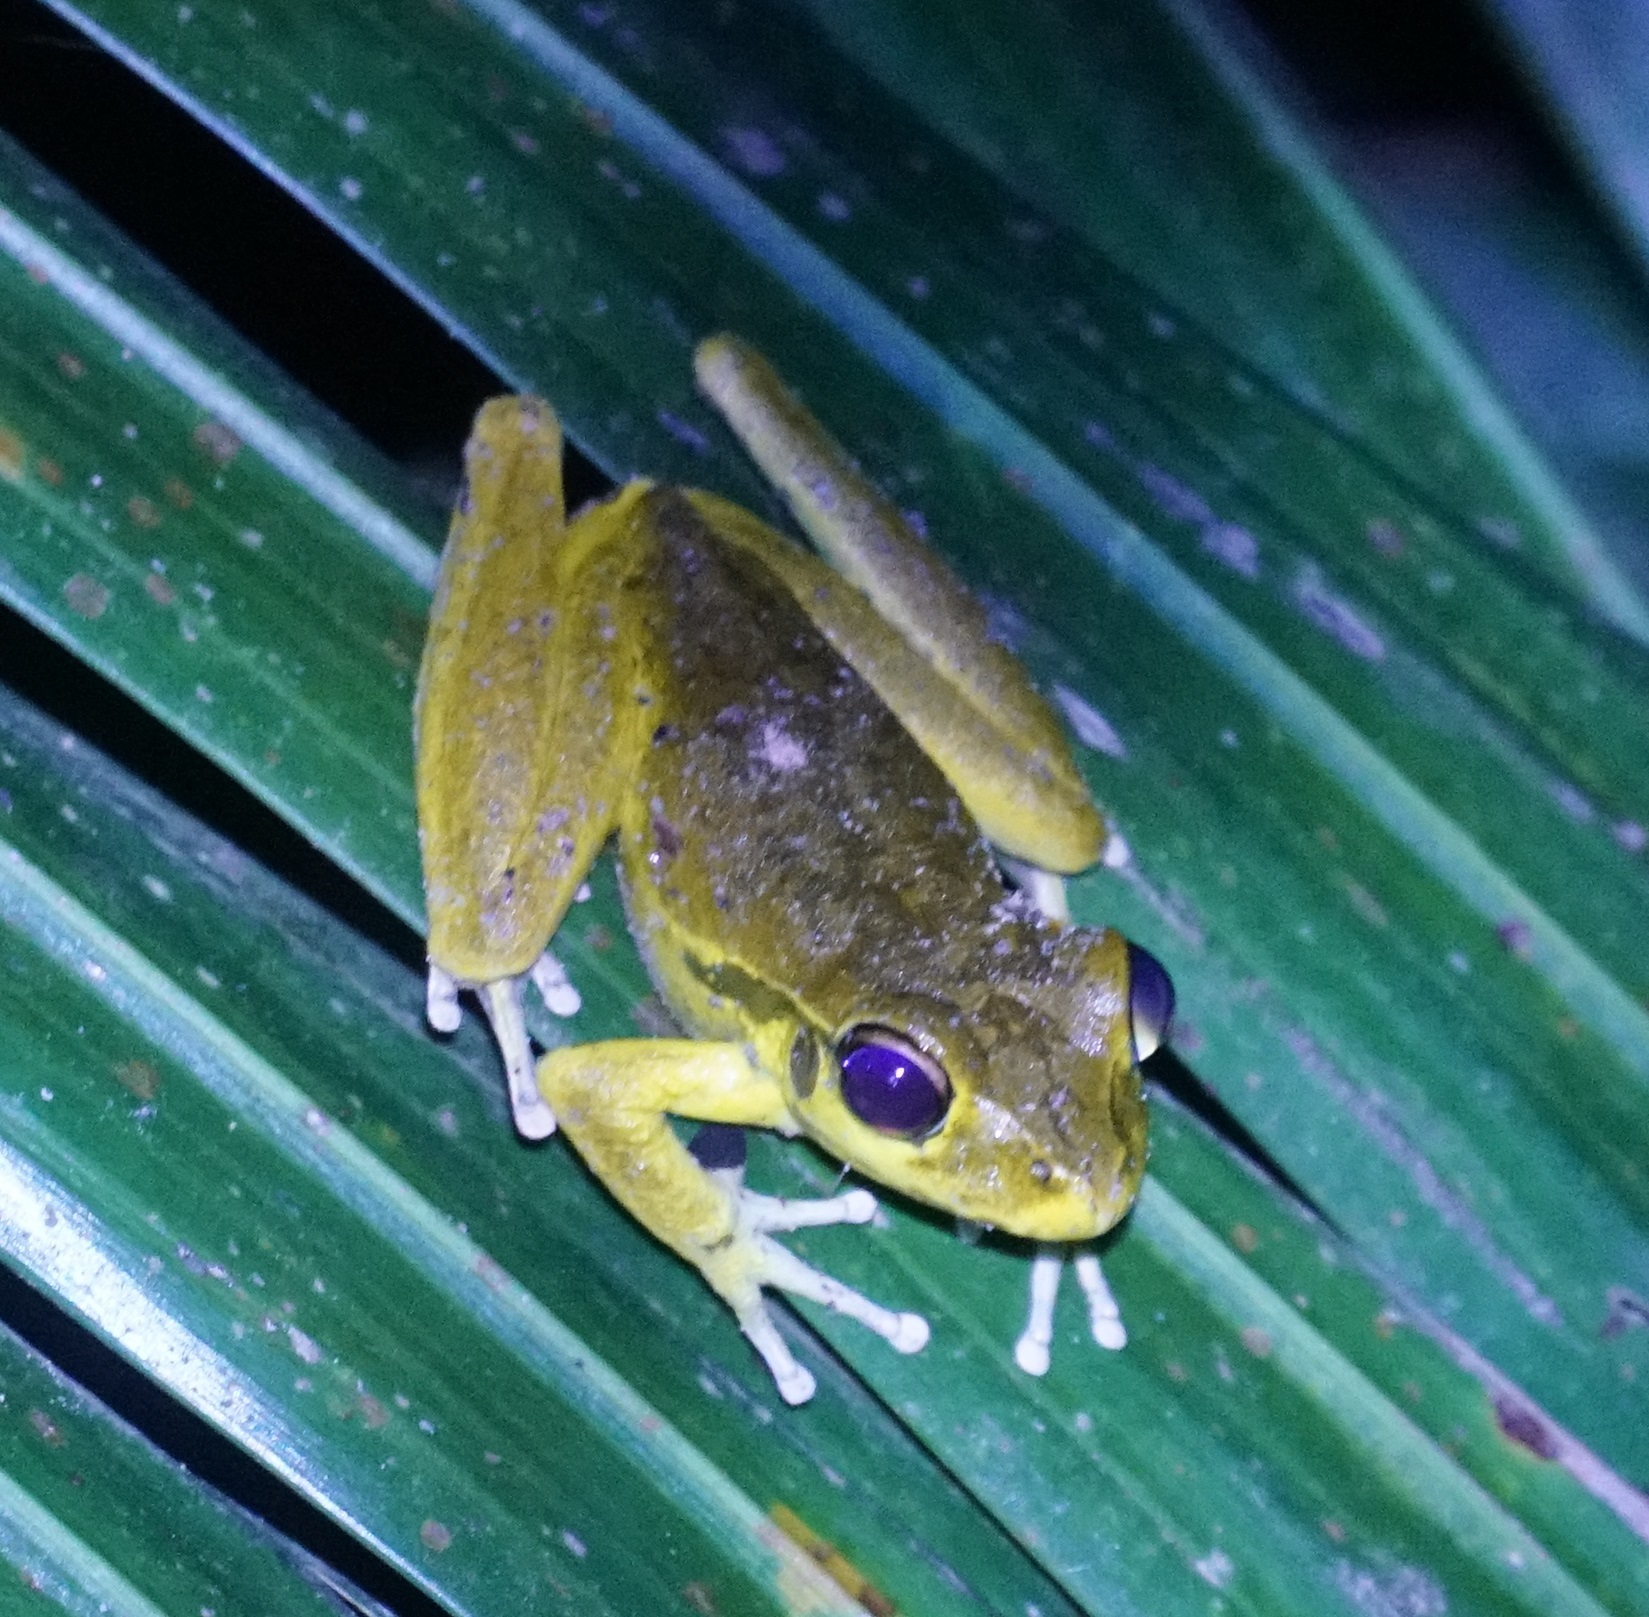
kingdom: Animalia
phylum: Chordata
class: Amphibia
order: Anura
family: Hylidae
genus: Ranoidea
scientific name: Ranoidea
